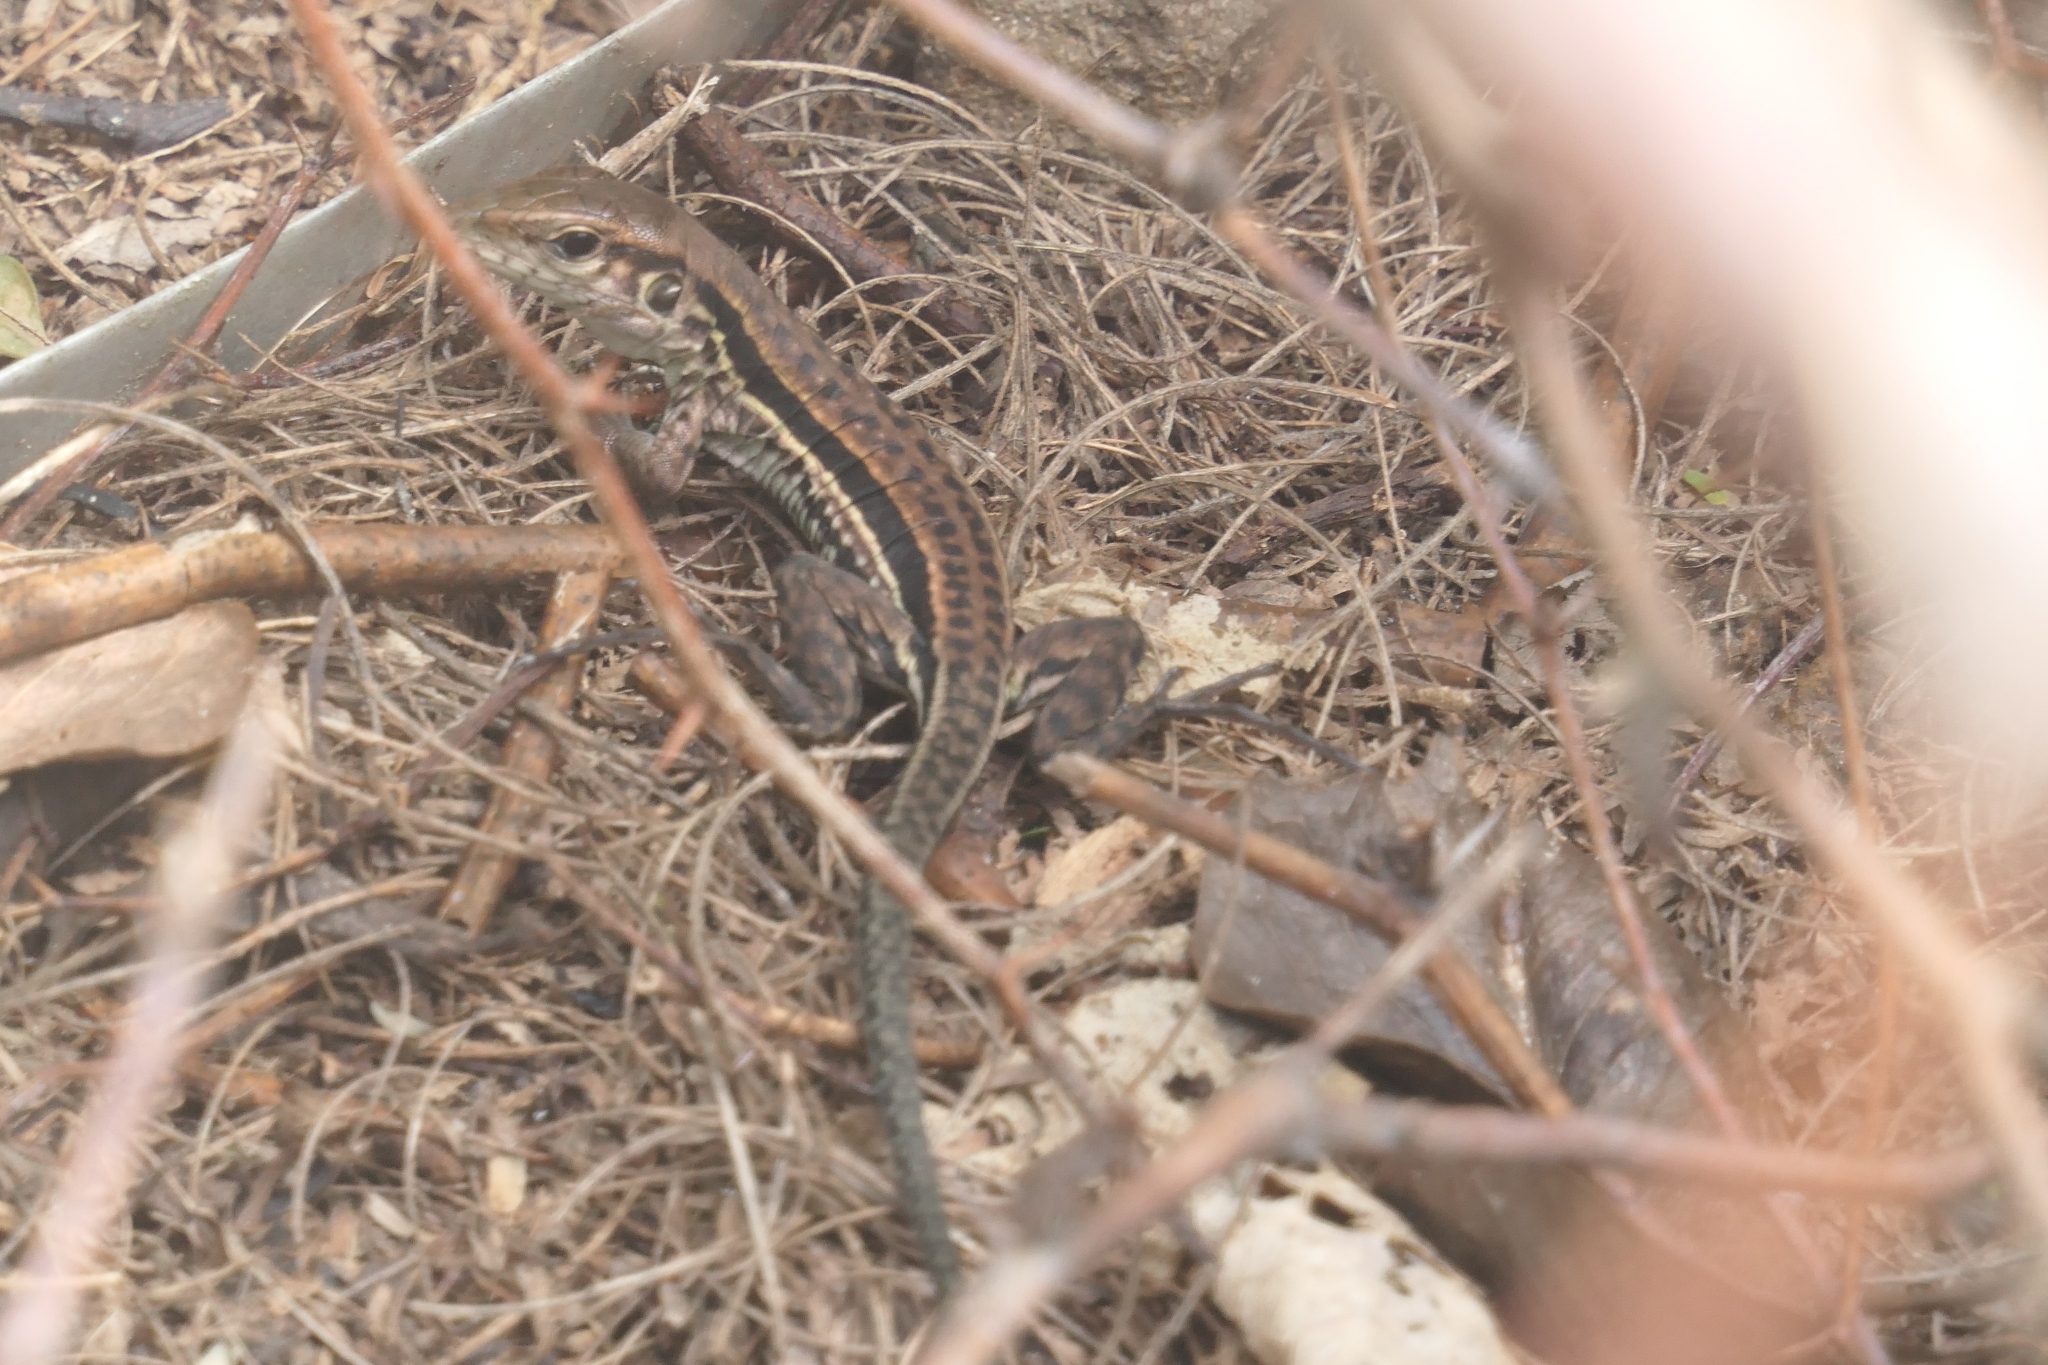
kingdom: Animalia
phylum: Chordata
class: Squamata
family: Teiidae
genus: Ameiva
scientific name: Ameiva tobagana
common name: Antillean ameiva
